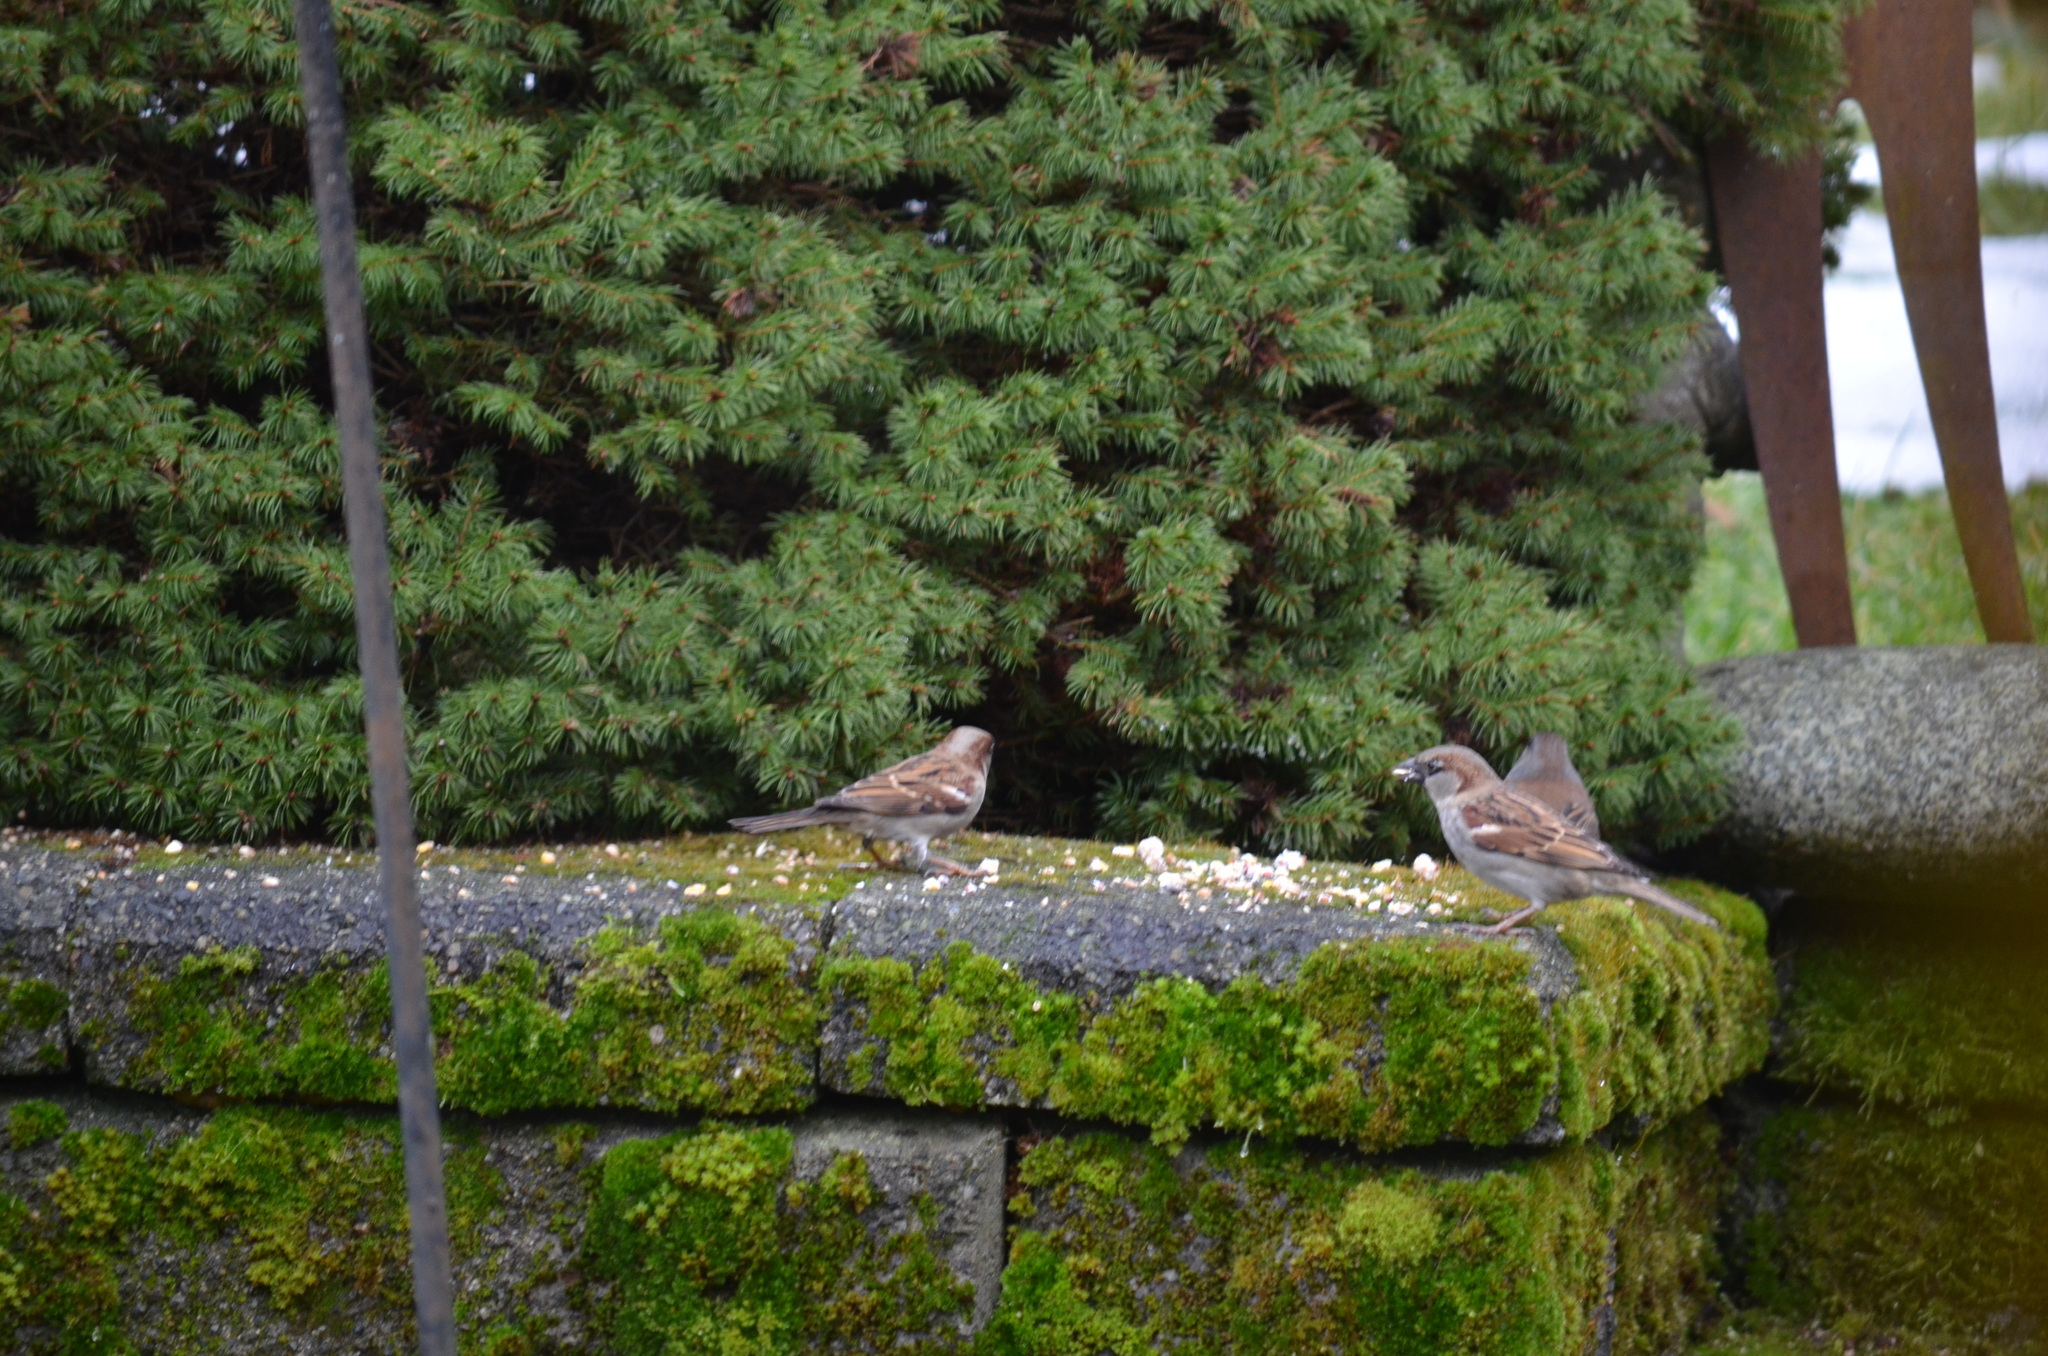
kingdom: Animalia
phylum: Chordata
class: Aves
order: Passeriformes
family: Passeridae
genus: Passer
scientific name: Passer domesticus
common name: House sparrow
